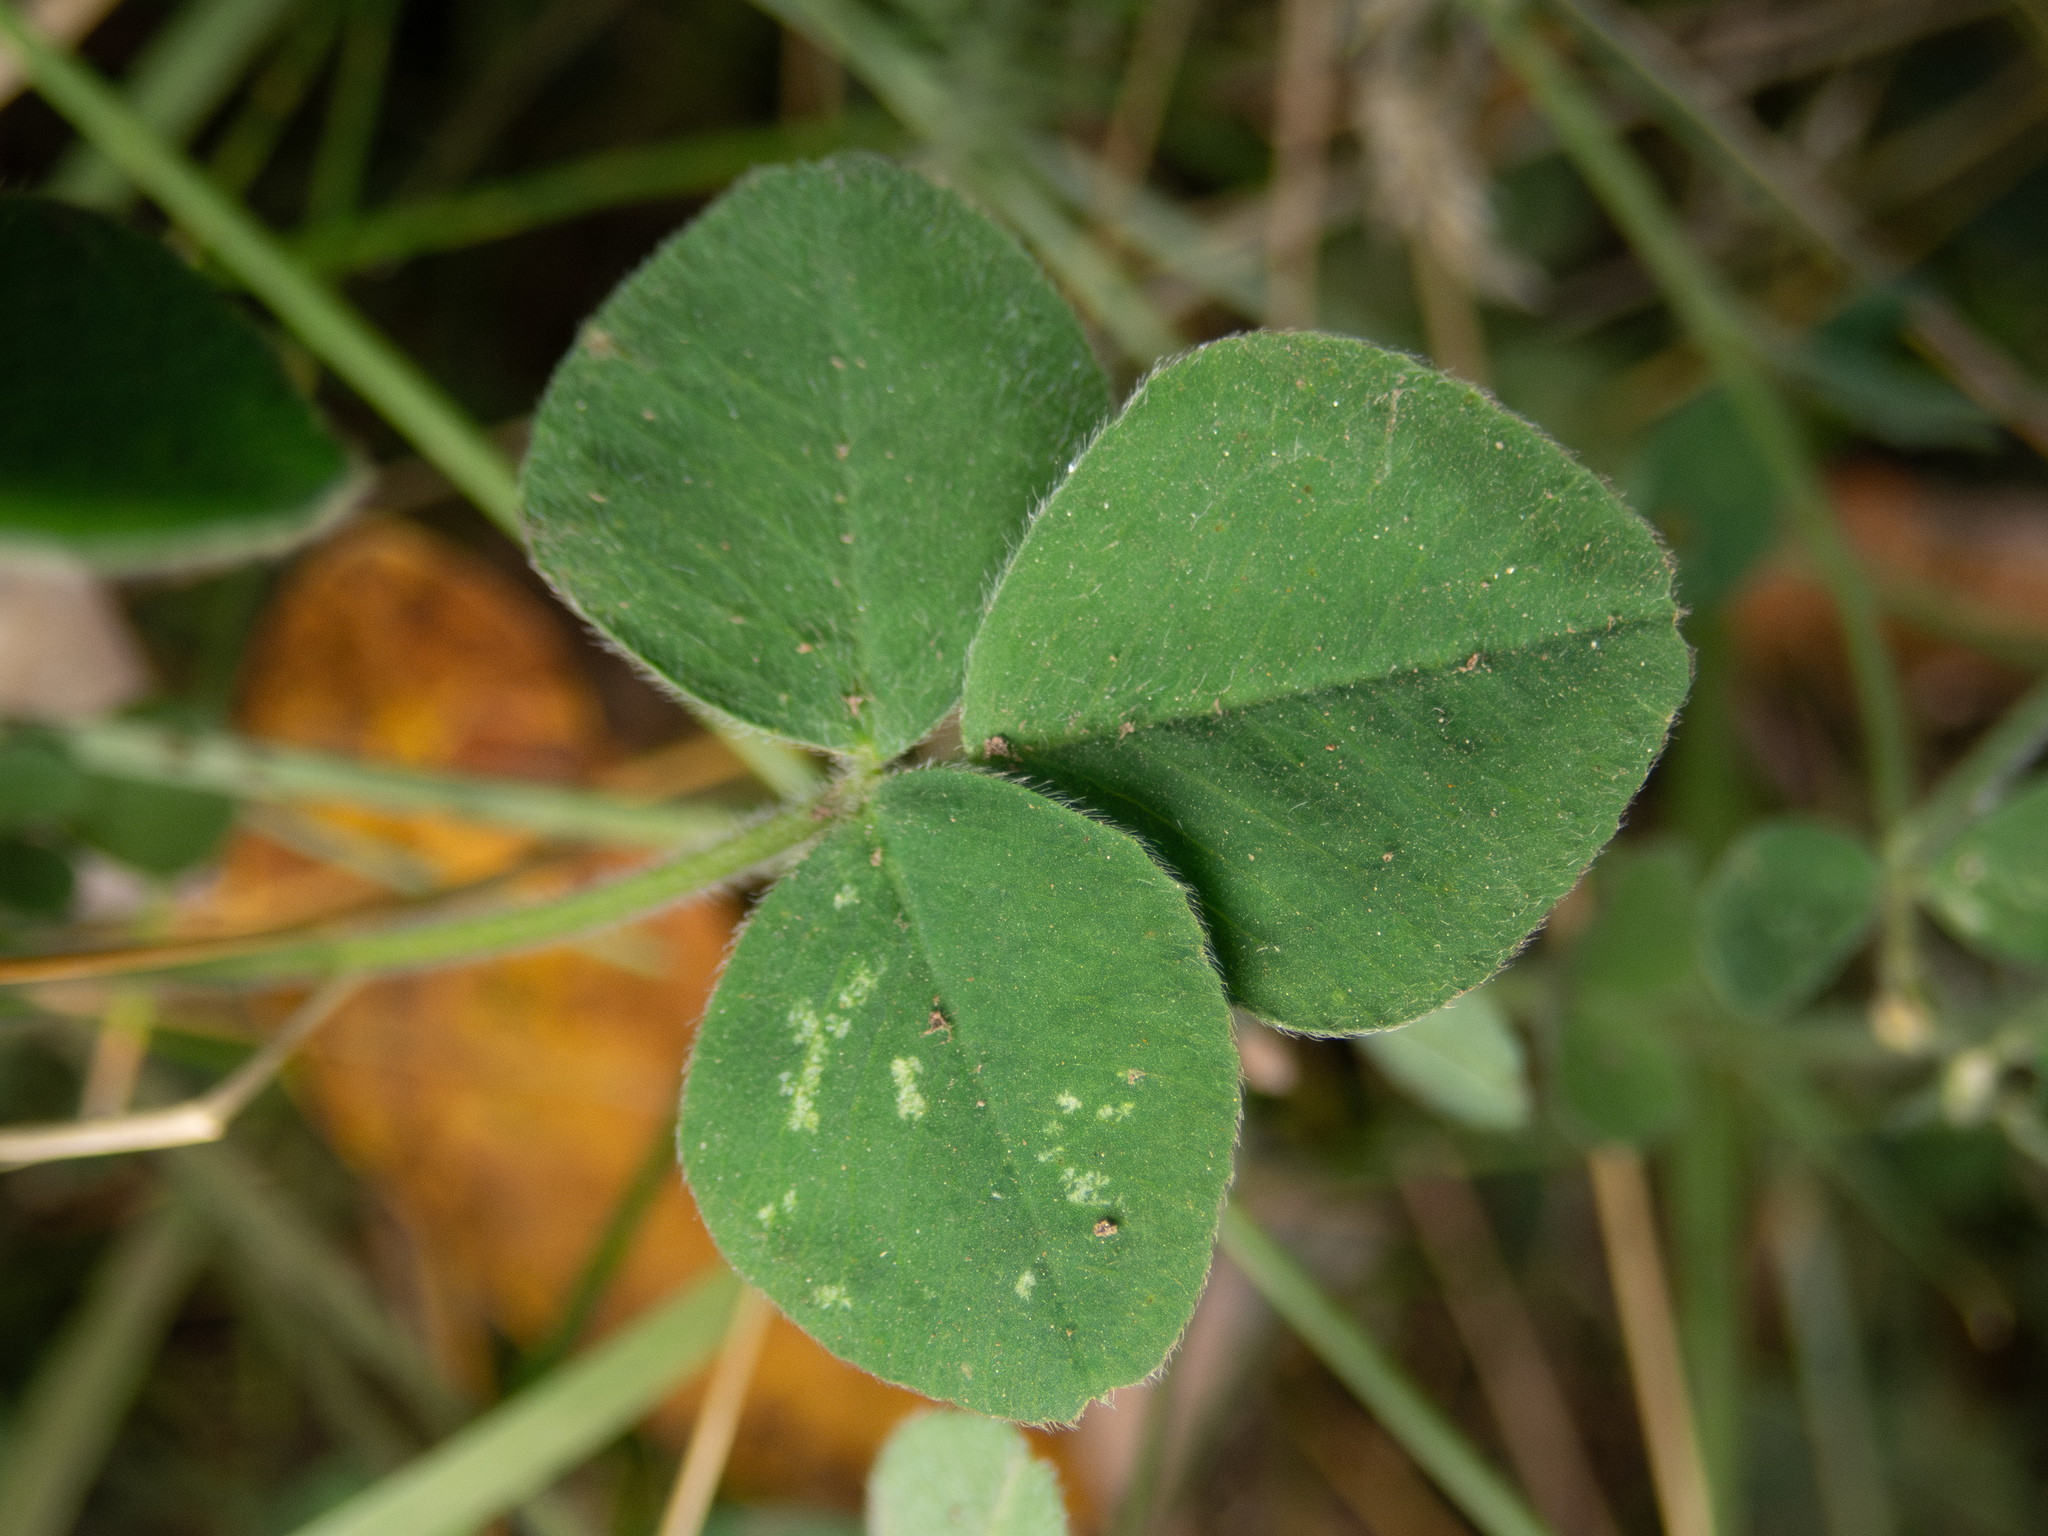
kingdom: Plantae
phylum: Tracheophyta
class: Magnoliopsida
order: Fabales
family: Fabaceae
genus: Medicago
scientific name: Medicago lupulina
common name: Black medick
